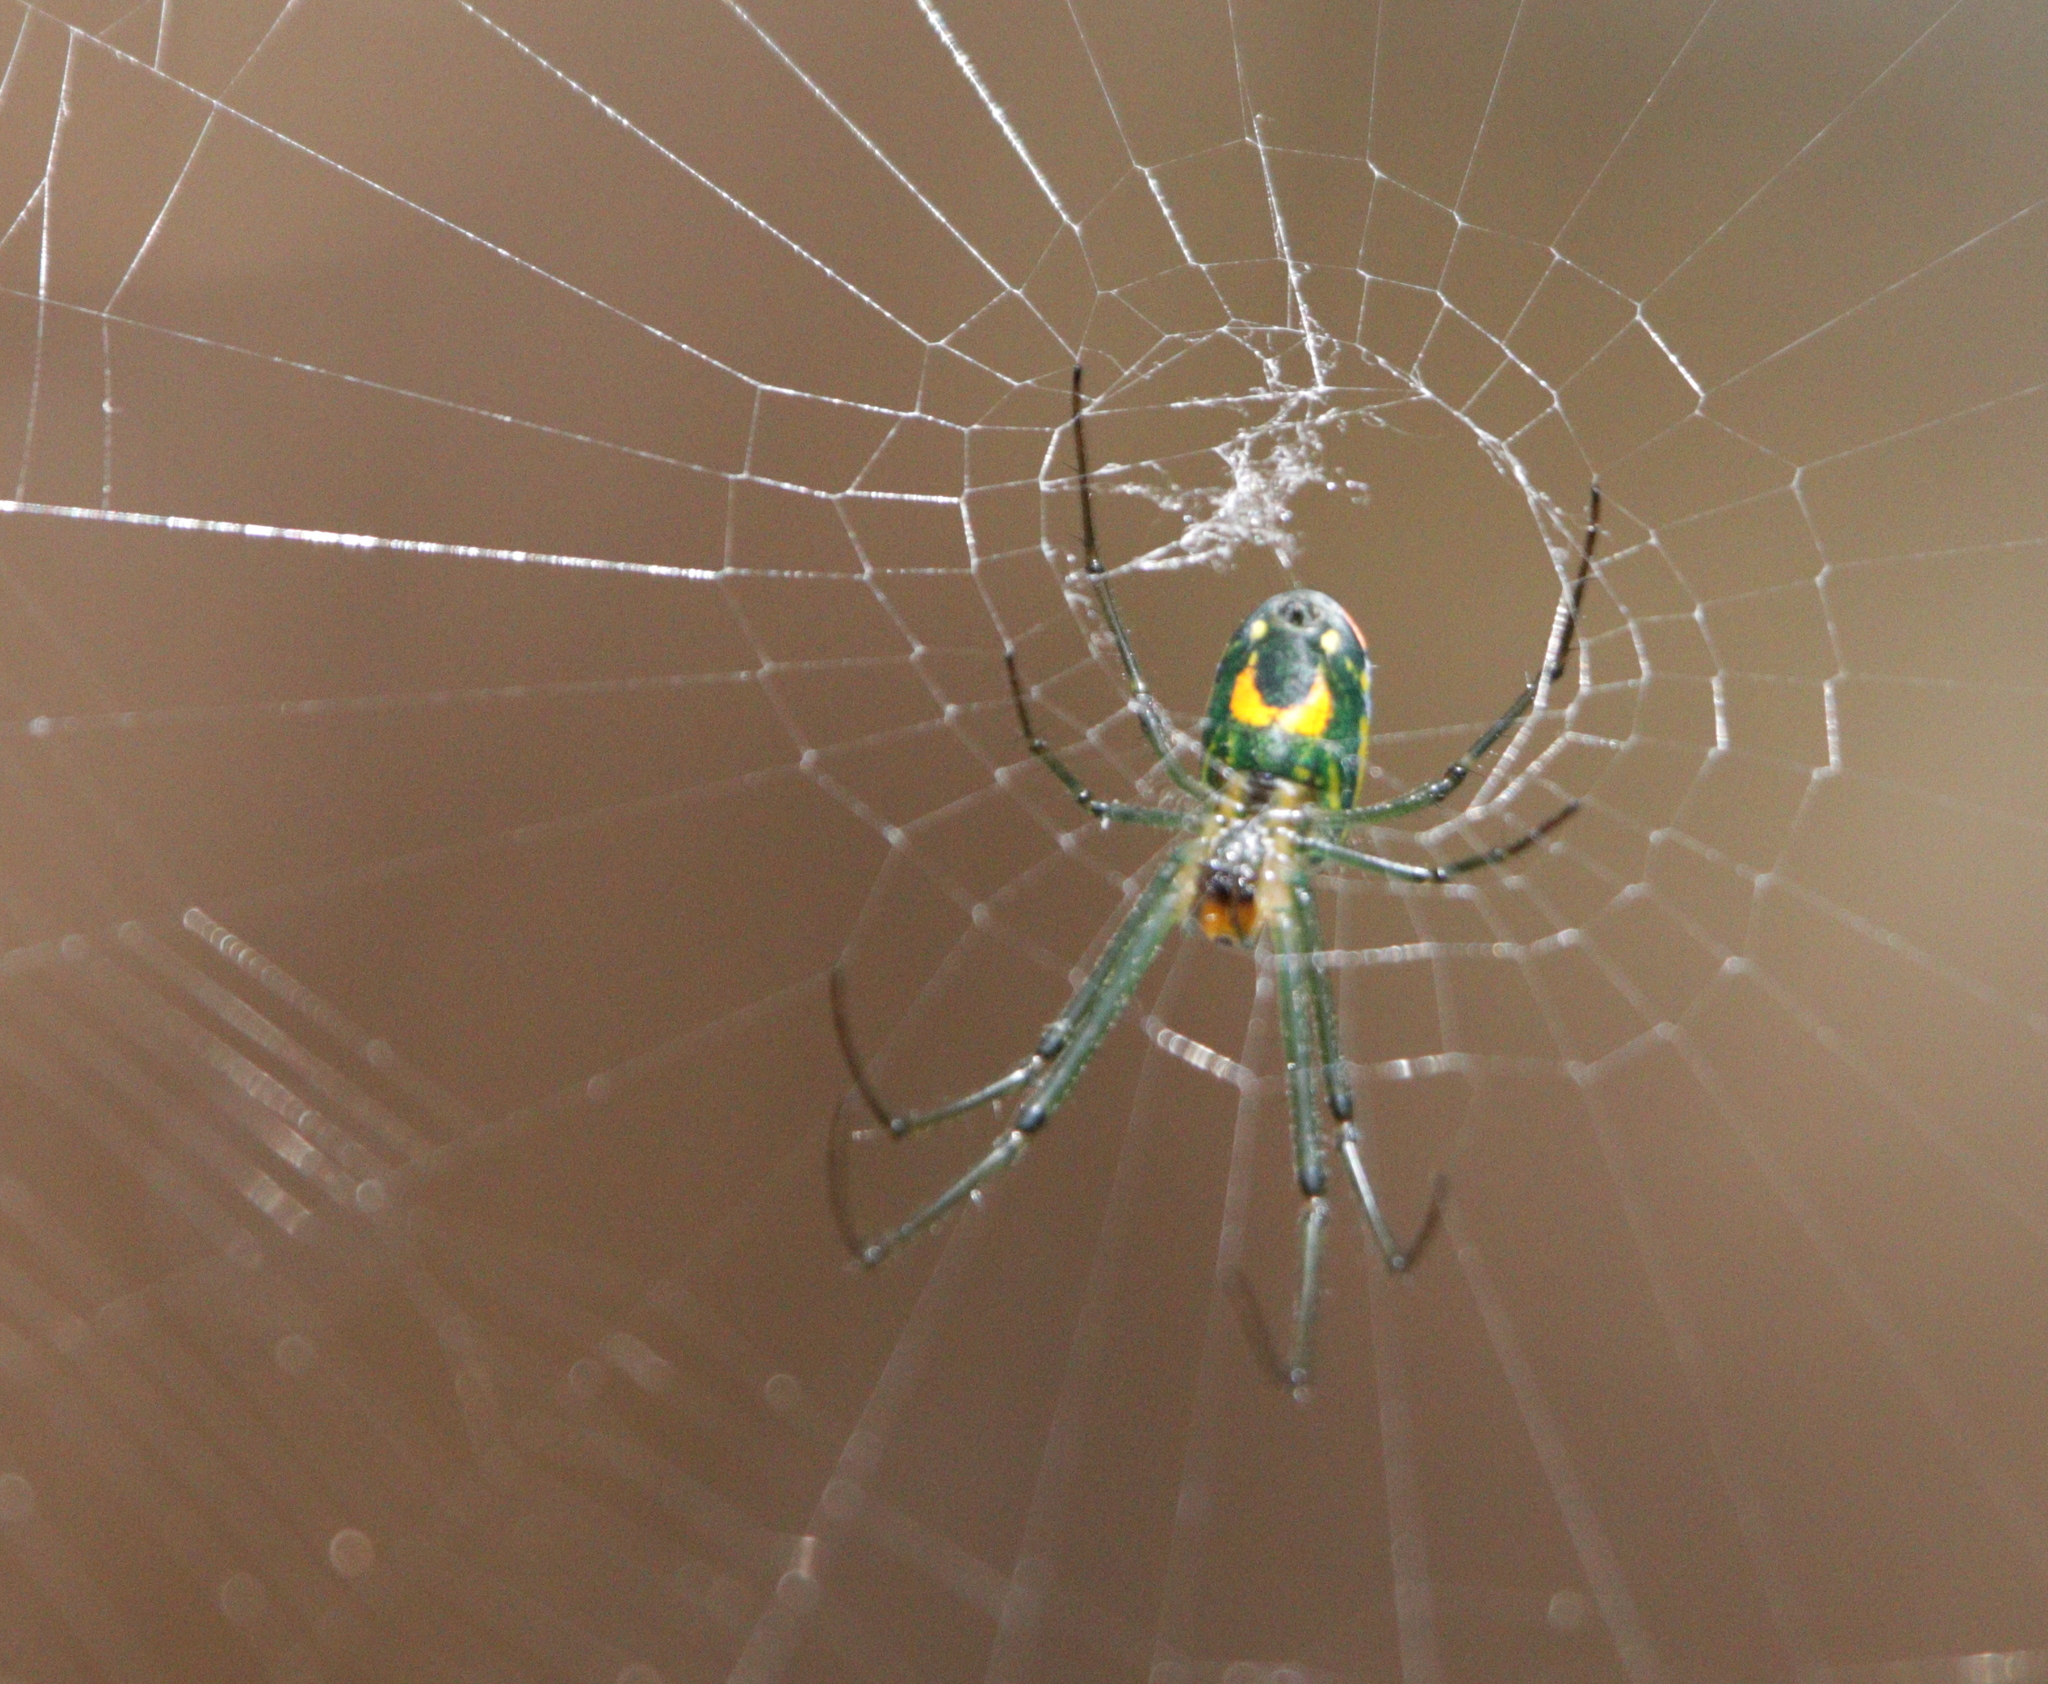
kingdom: Animalia
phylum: Arthropoda
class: Arachnida
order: Araneae
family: Tetragnathidae
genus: Leucauge
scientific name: Leucauge argyrobapta
